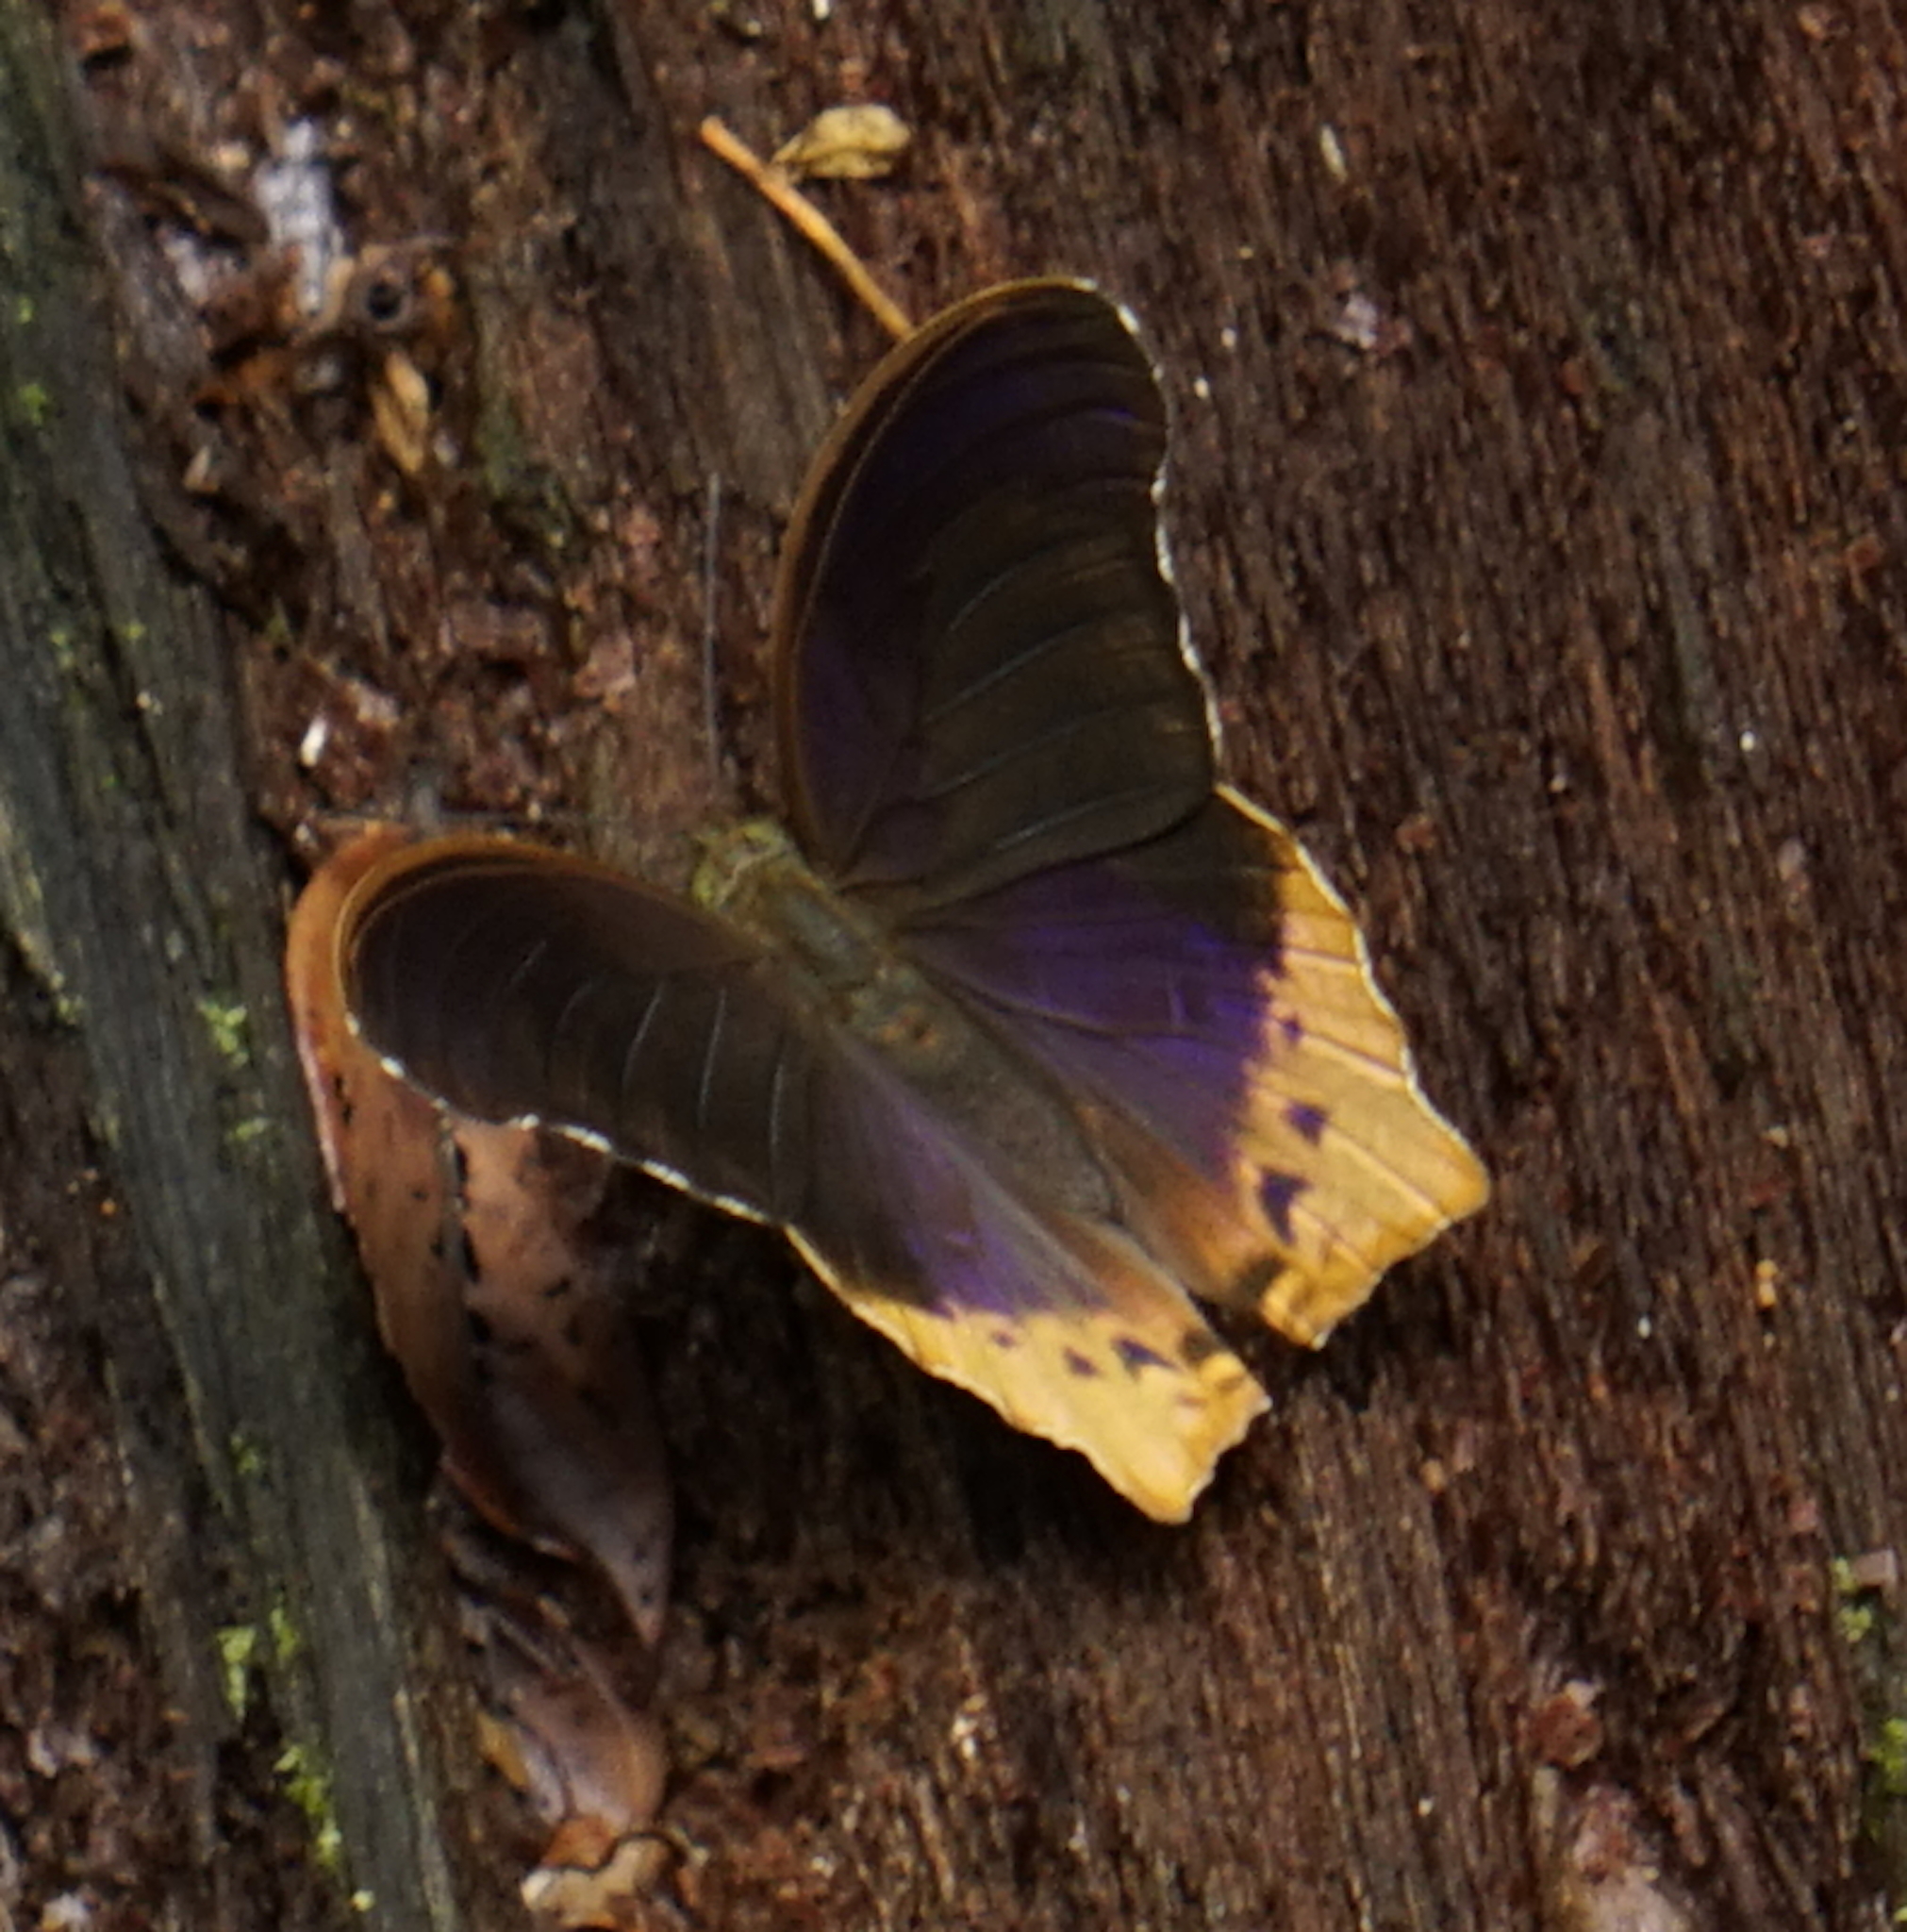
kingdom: Animalia
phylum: Arthropoda
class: Insecta
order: Lepidoptera
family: Nymphalidae
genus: Terinos
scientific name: Terinos clarissa
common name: Malayan assyrian
